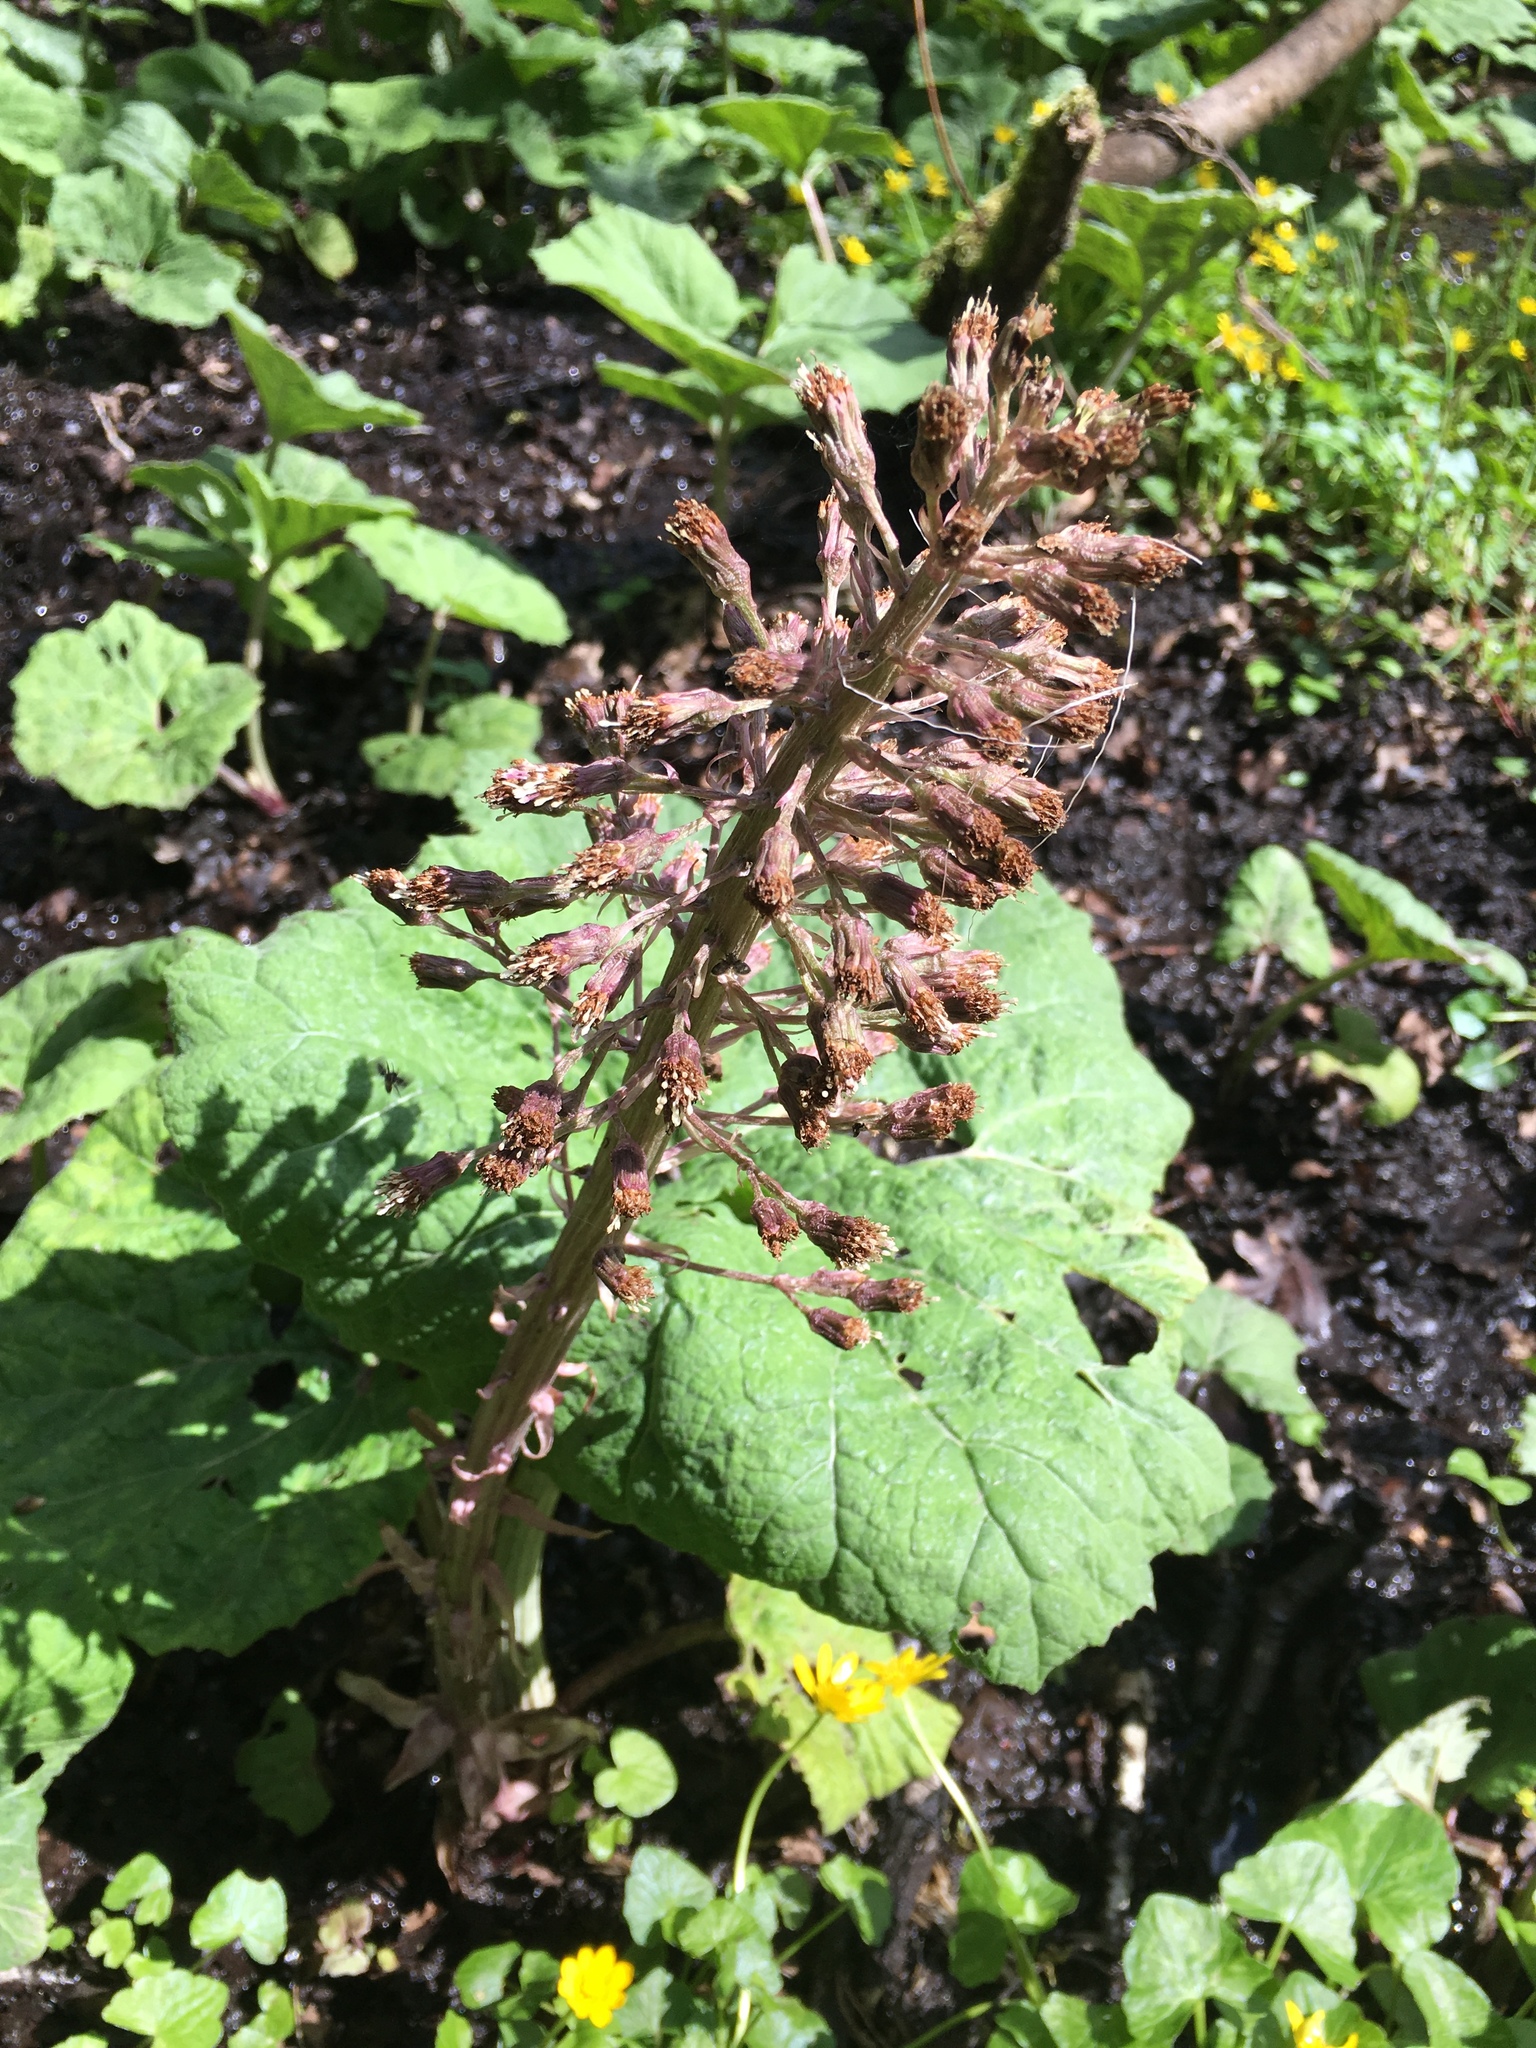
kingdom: Plantae
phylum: Tracheophyta
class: Magnoliopsida
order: Asterales
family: Asteraceae
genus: Petasites
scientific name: Petasites hybridus
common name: Butterbur
